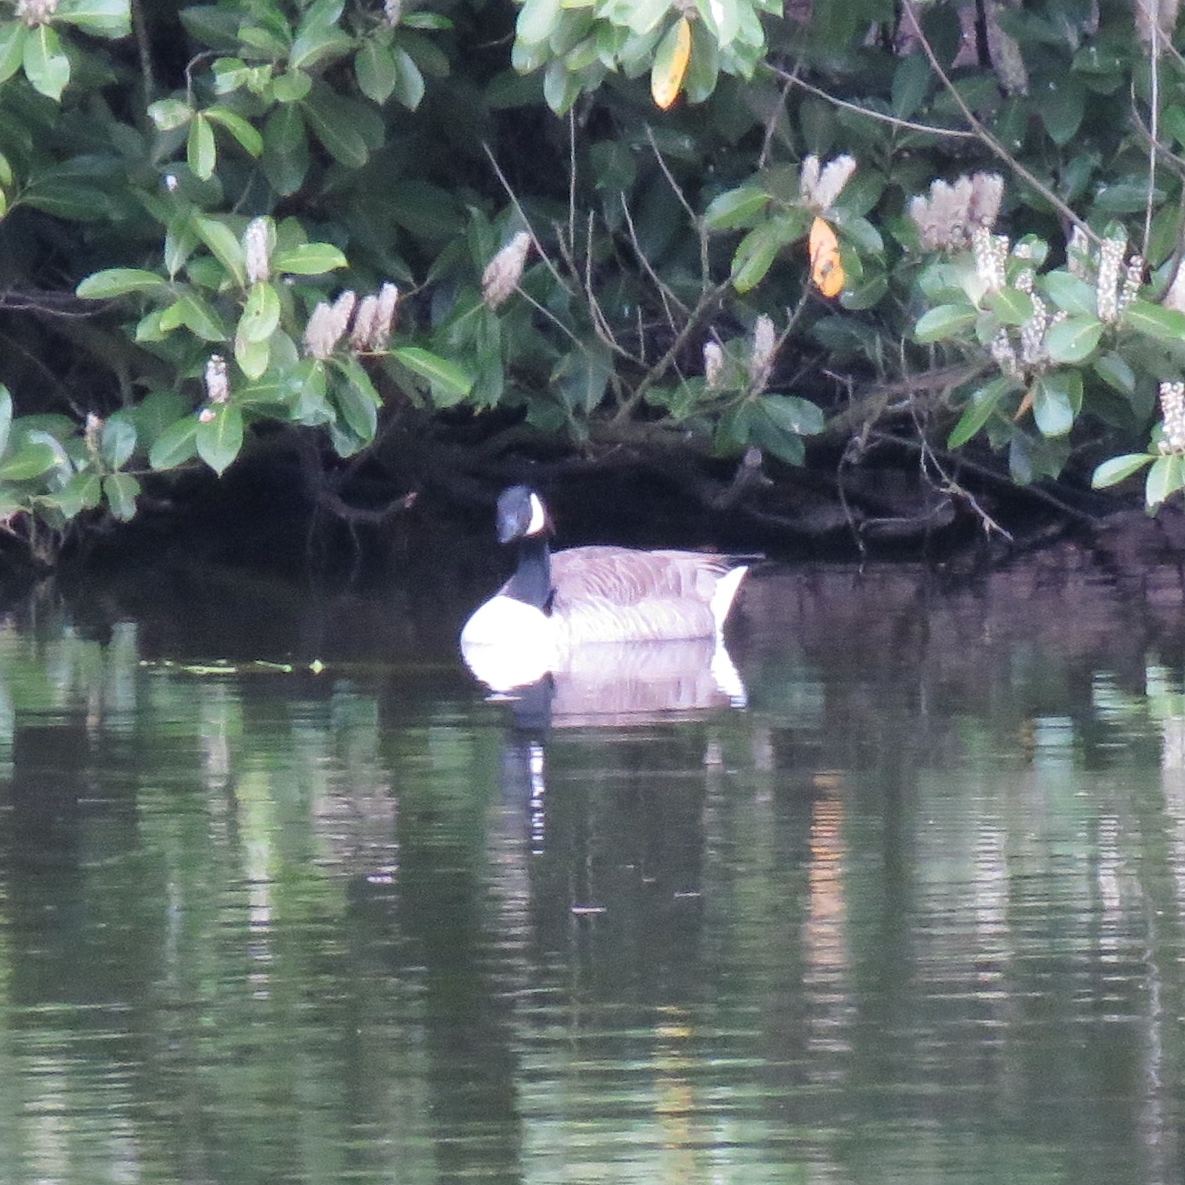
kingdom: Animalia
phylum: Chordata
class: Aves
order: Anseriformes
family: Anatidae
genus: Branta
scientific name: Branta canadensis
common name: Canada goose
